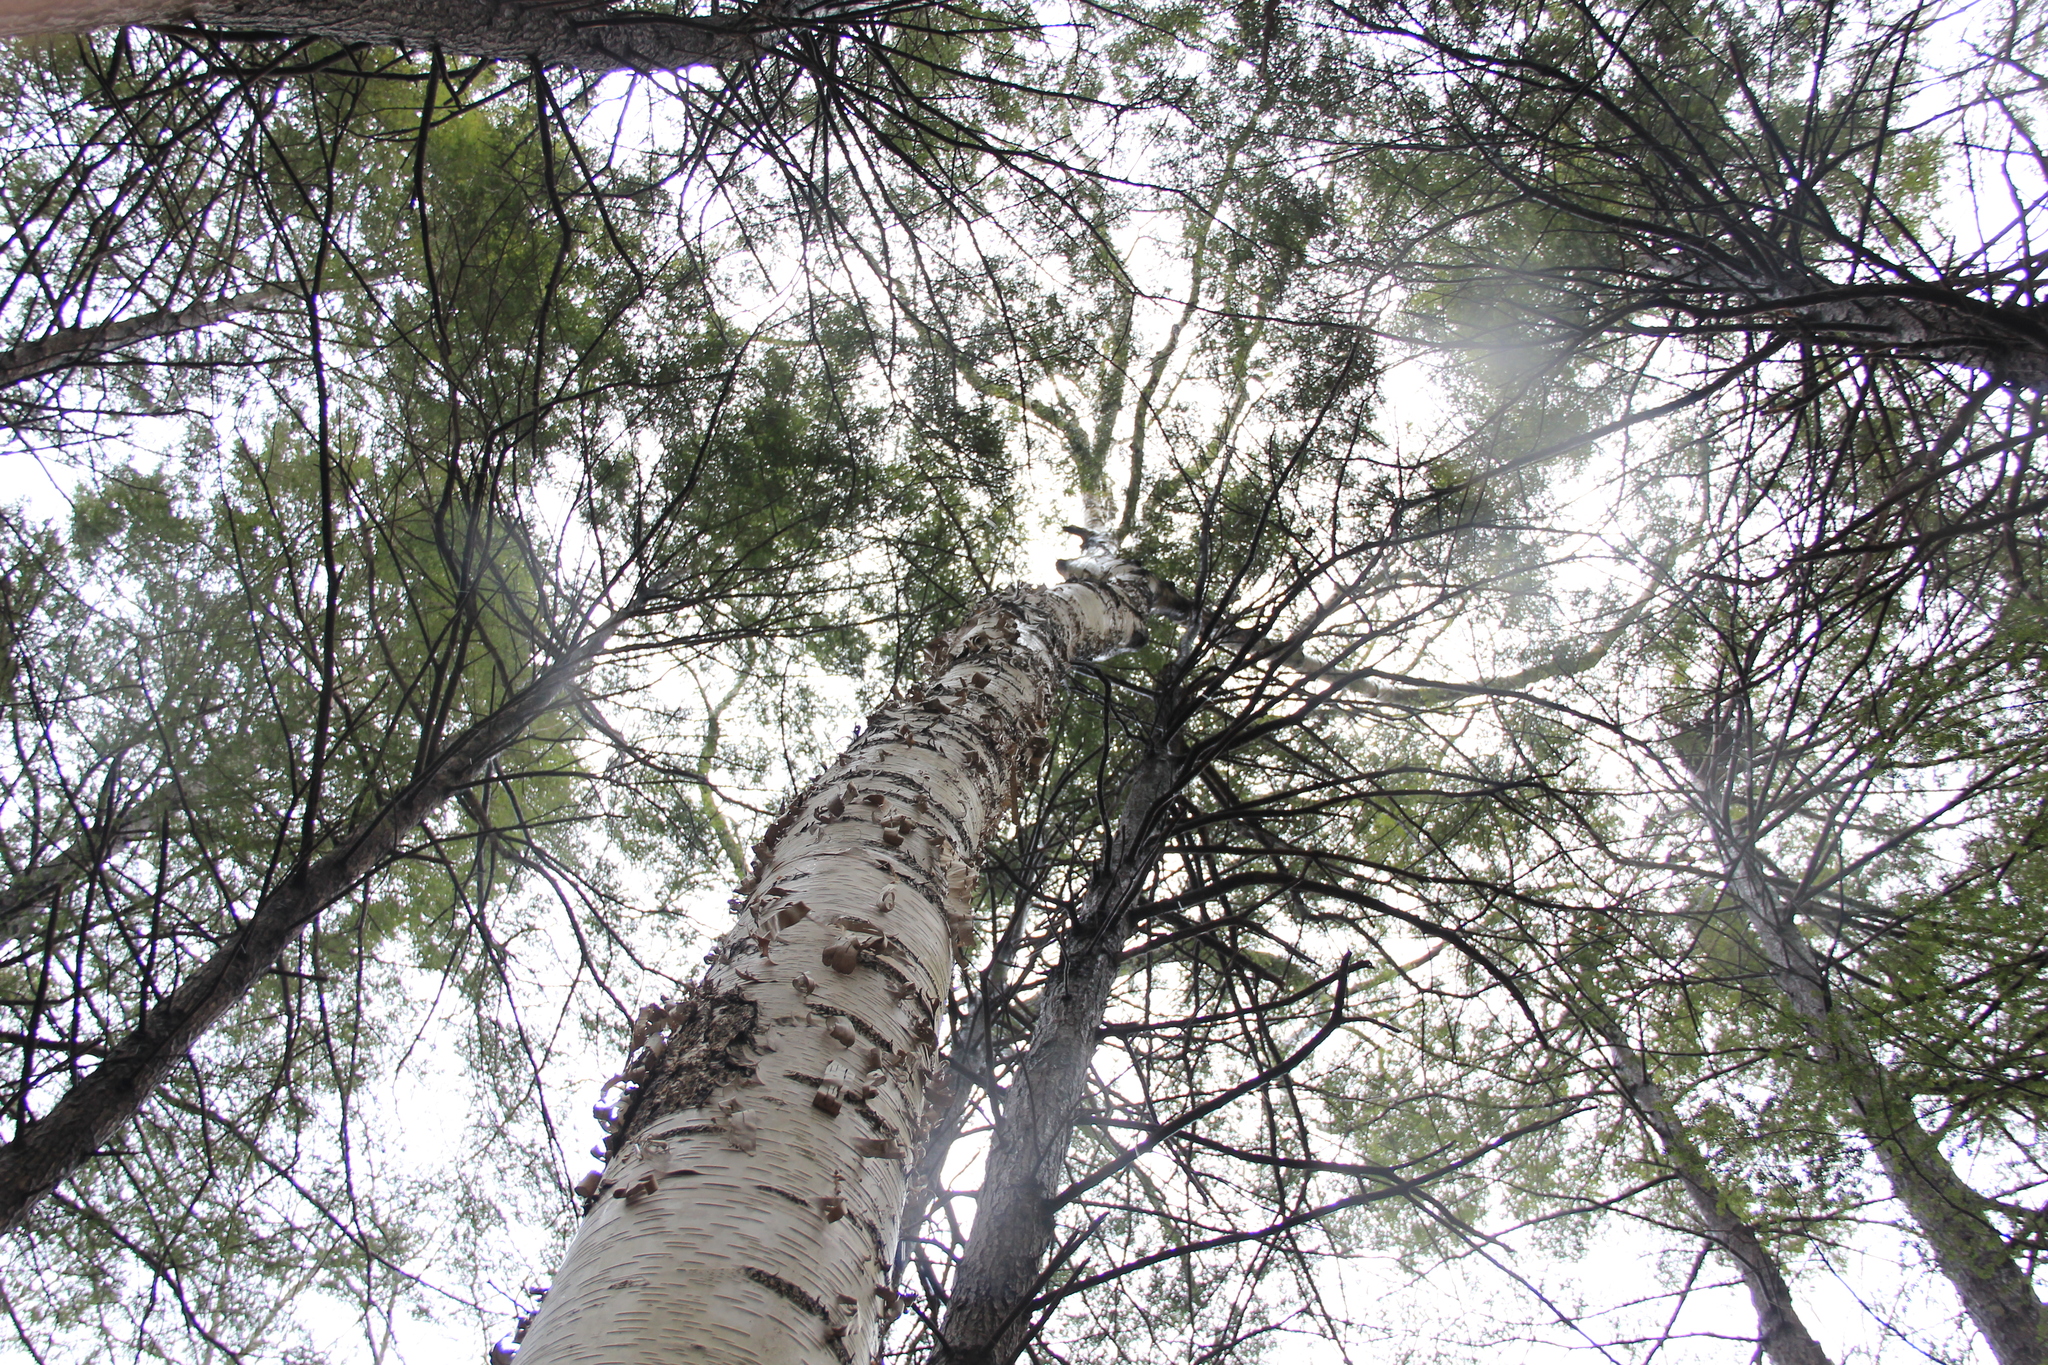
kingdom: Plantae
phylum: Tracheophyta
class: Magnoliopsida
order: Fagales
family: Betulaceae
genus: Betula
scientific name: Betula papyrifera
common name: Paper birch
